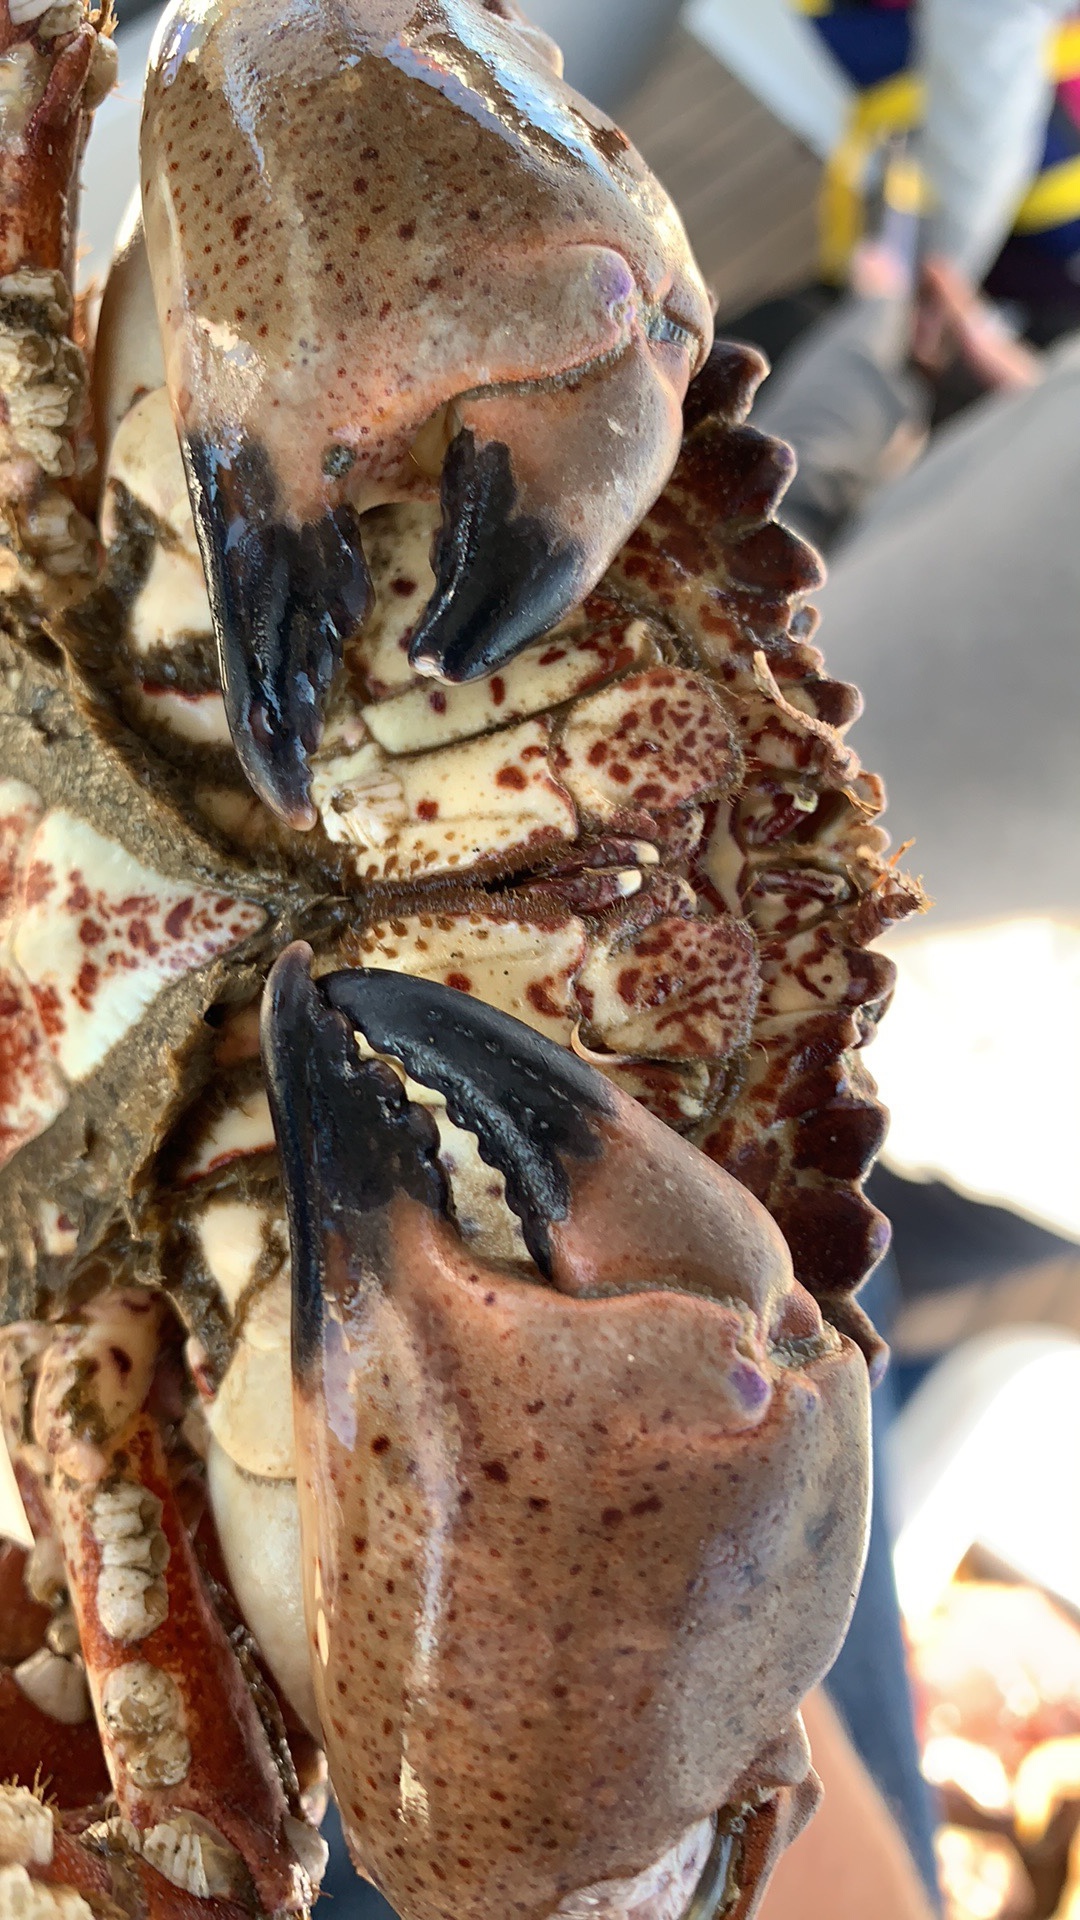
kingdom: Animalia
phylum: Arthropoda
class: Malacostraca
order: Decapoda
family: Cancridae
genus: Romaleon
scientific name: Romaleon antennarium
